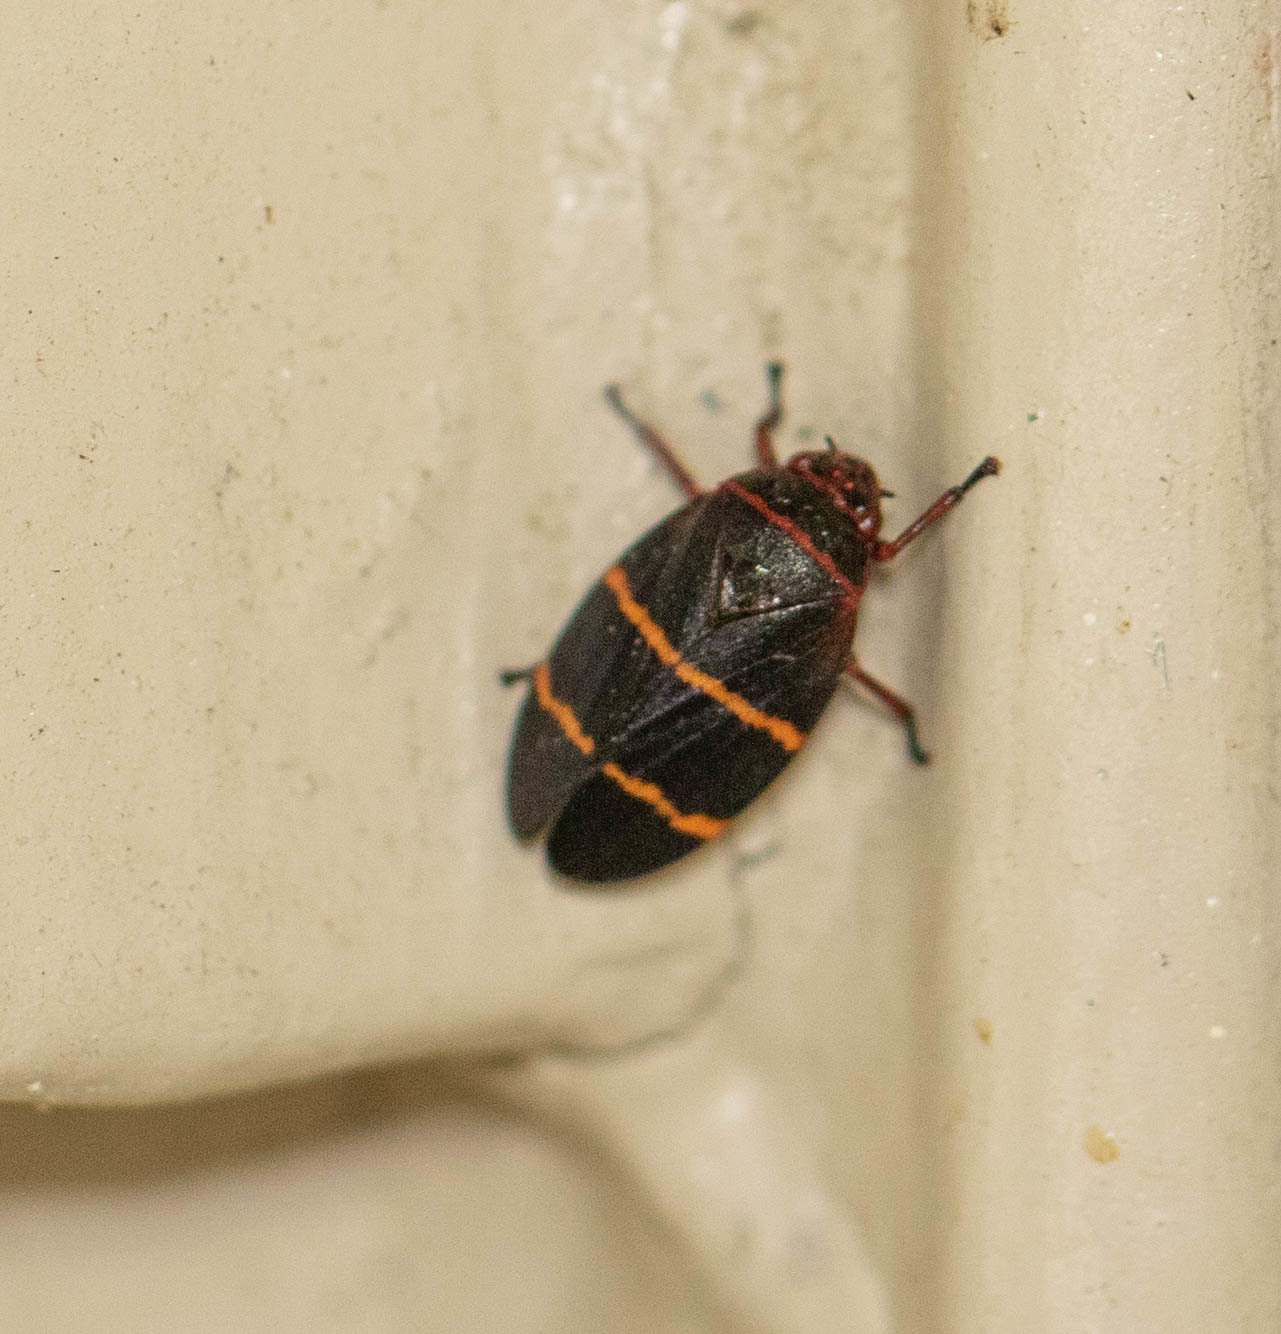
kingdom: Animalia
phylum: Arthropoda
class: Insecta
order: Hemiptera
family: Cercopidae
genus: Prosapia
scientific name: Prosapia bicincta
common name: Twolined spittlebug
